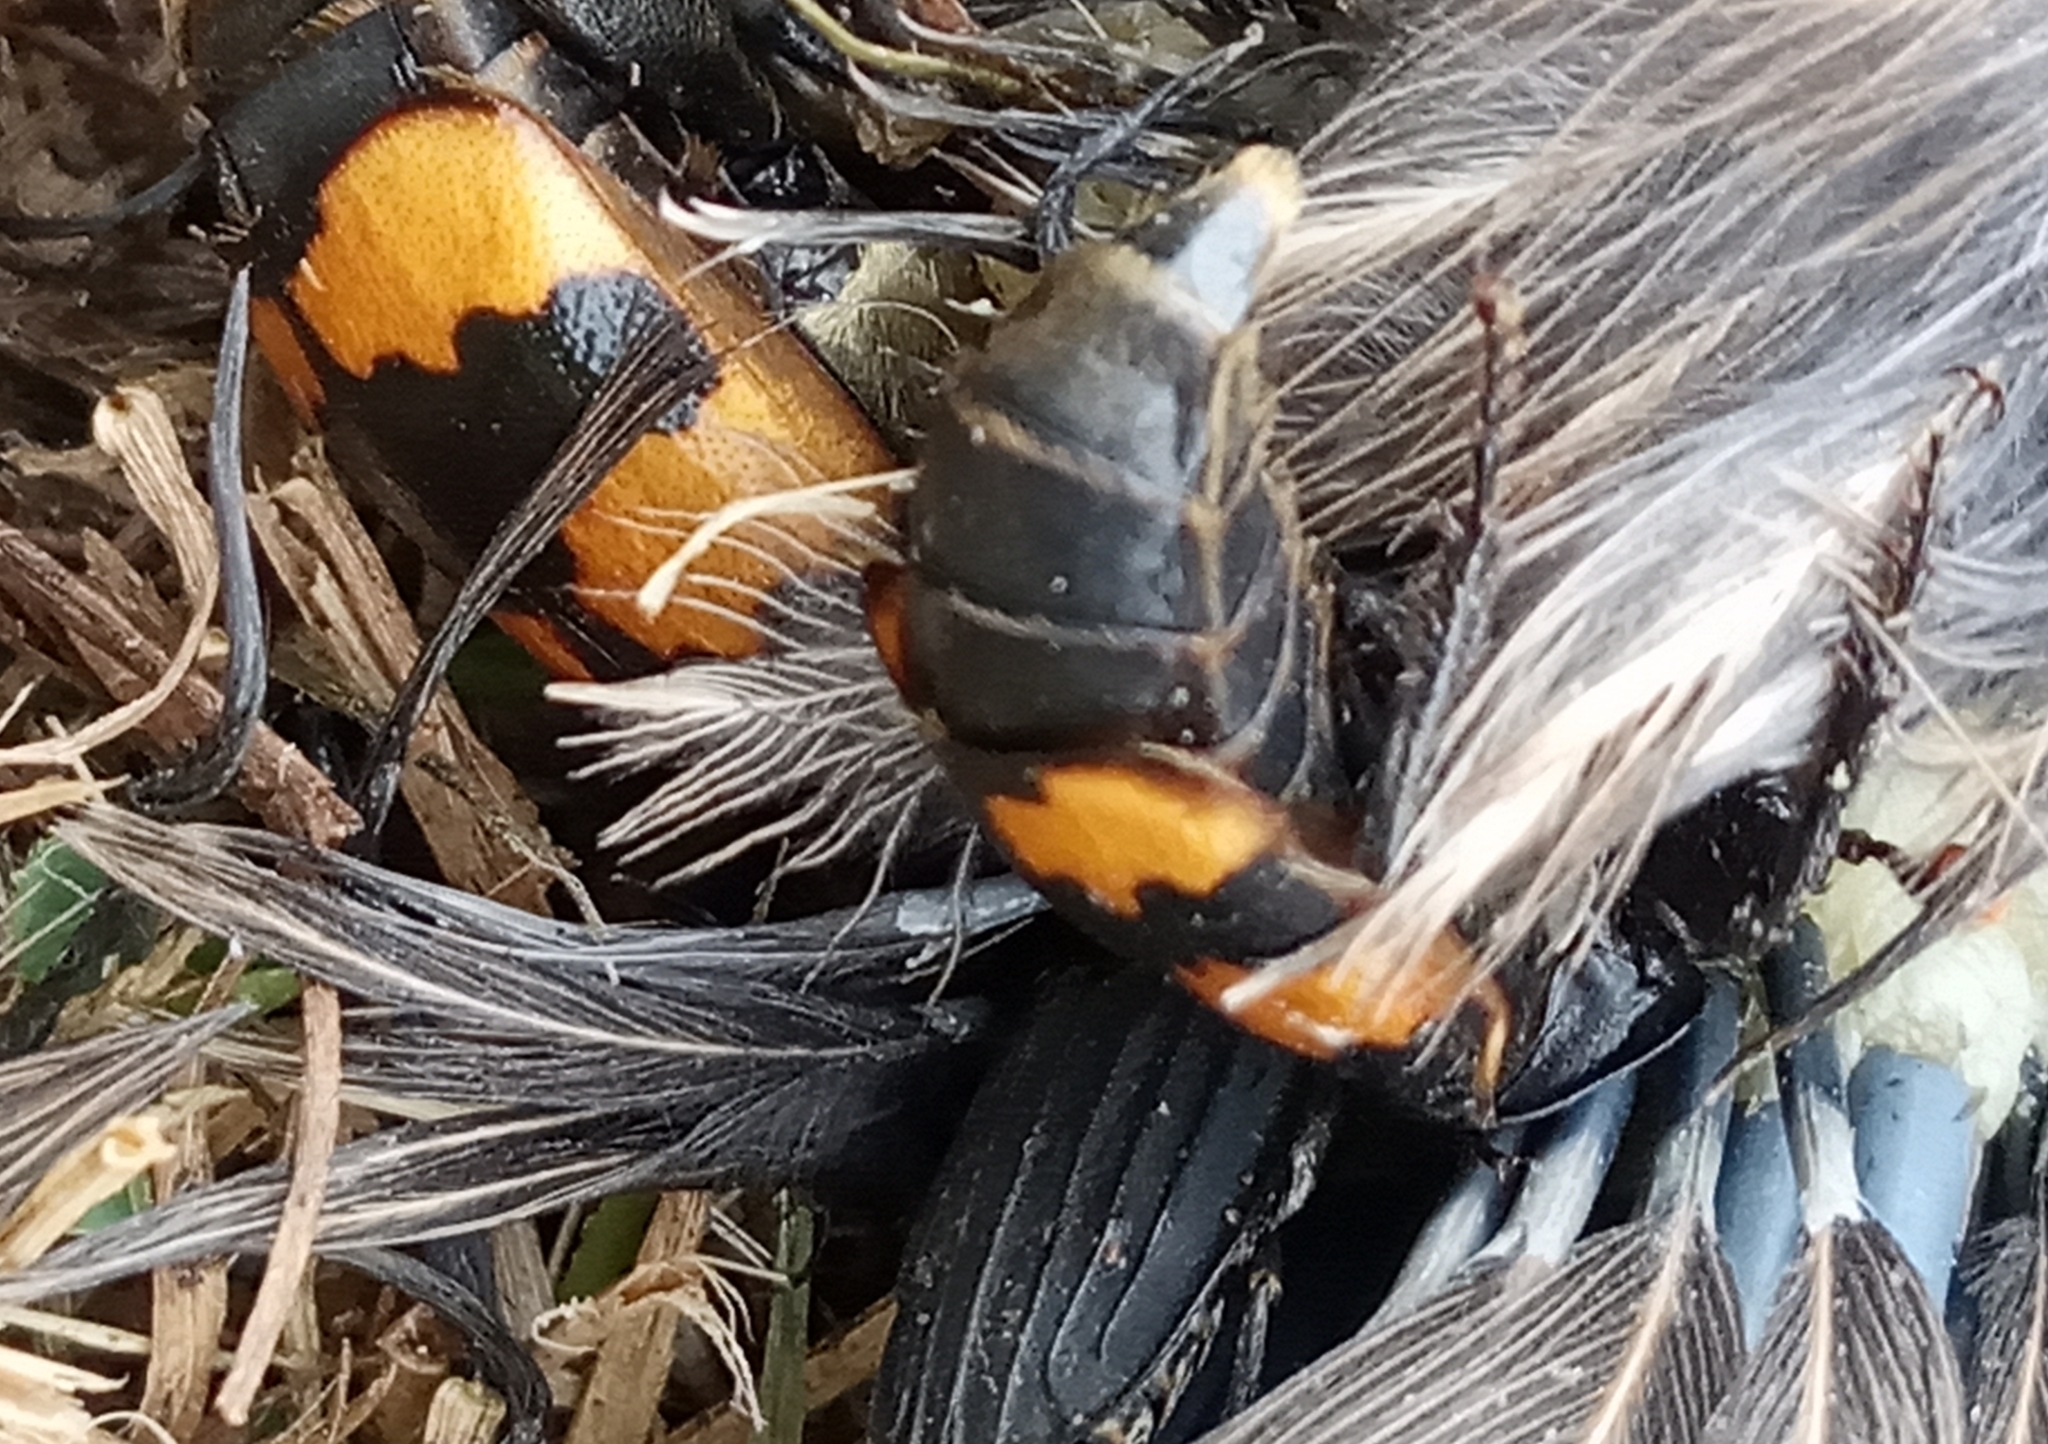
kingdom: Animalia
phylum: Arthropoda
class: Insecta
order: Coleoptera
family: Staphylinidae
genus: Nicrophorus
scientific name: Nicrophorus interruptus
